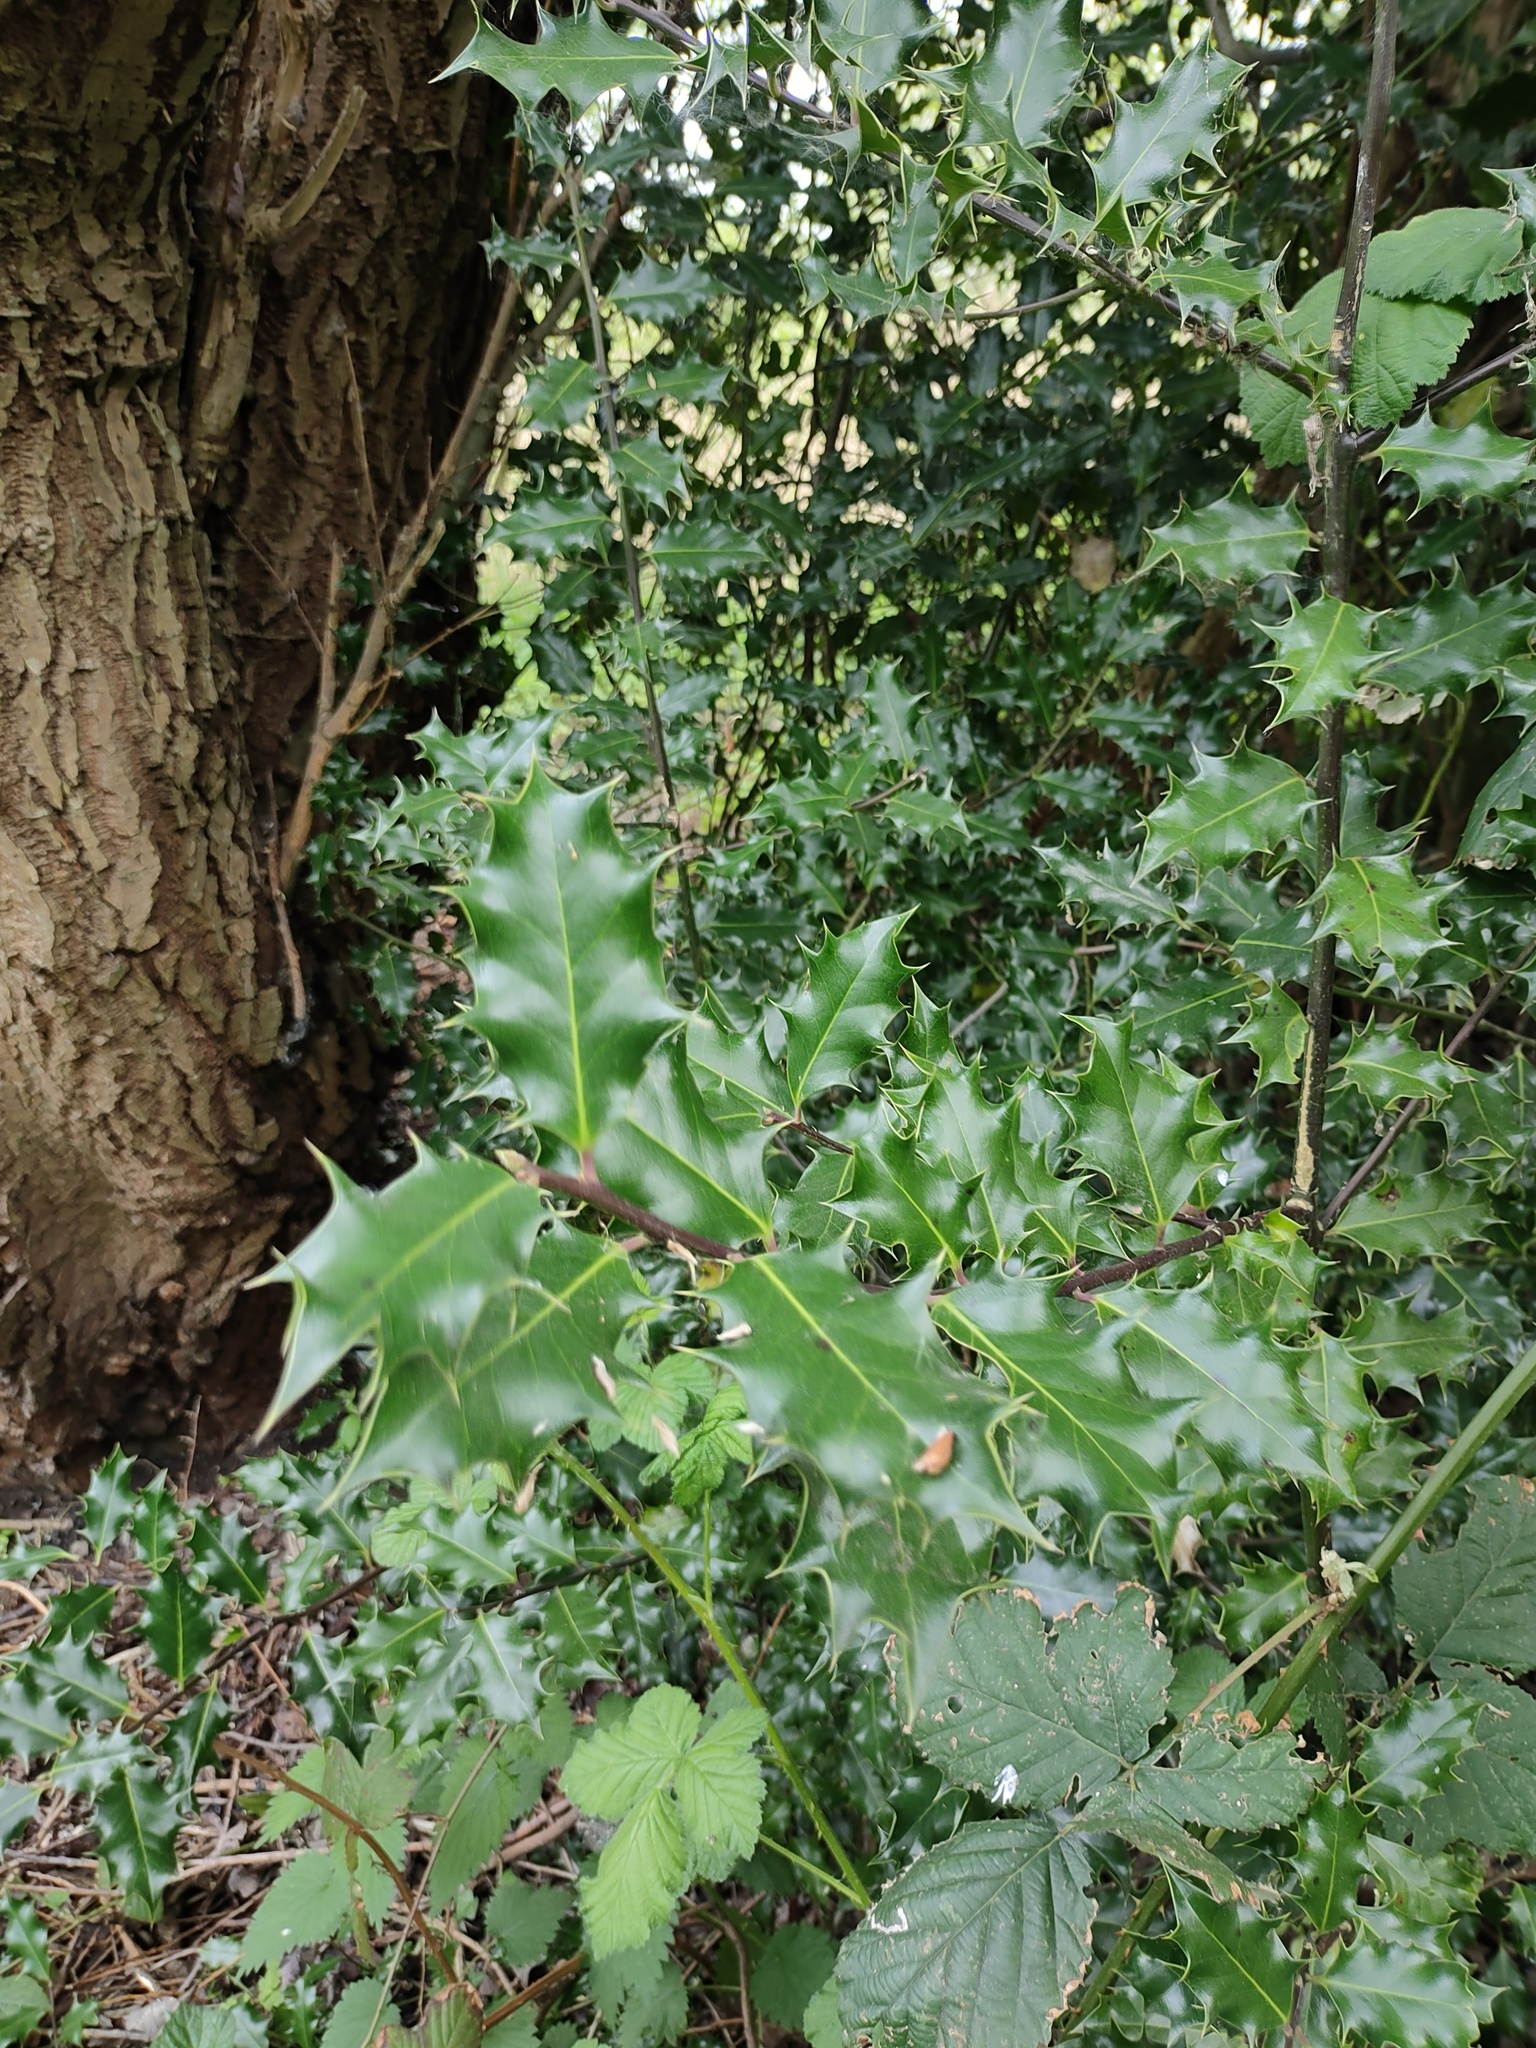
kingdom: Plantae
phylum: Tracheophyta
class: Magnoliopsida
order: Aquifoliales
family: Aquifoliaceae
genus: Ilex
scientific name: Ilex aquifolium
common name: English holly
